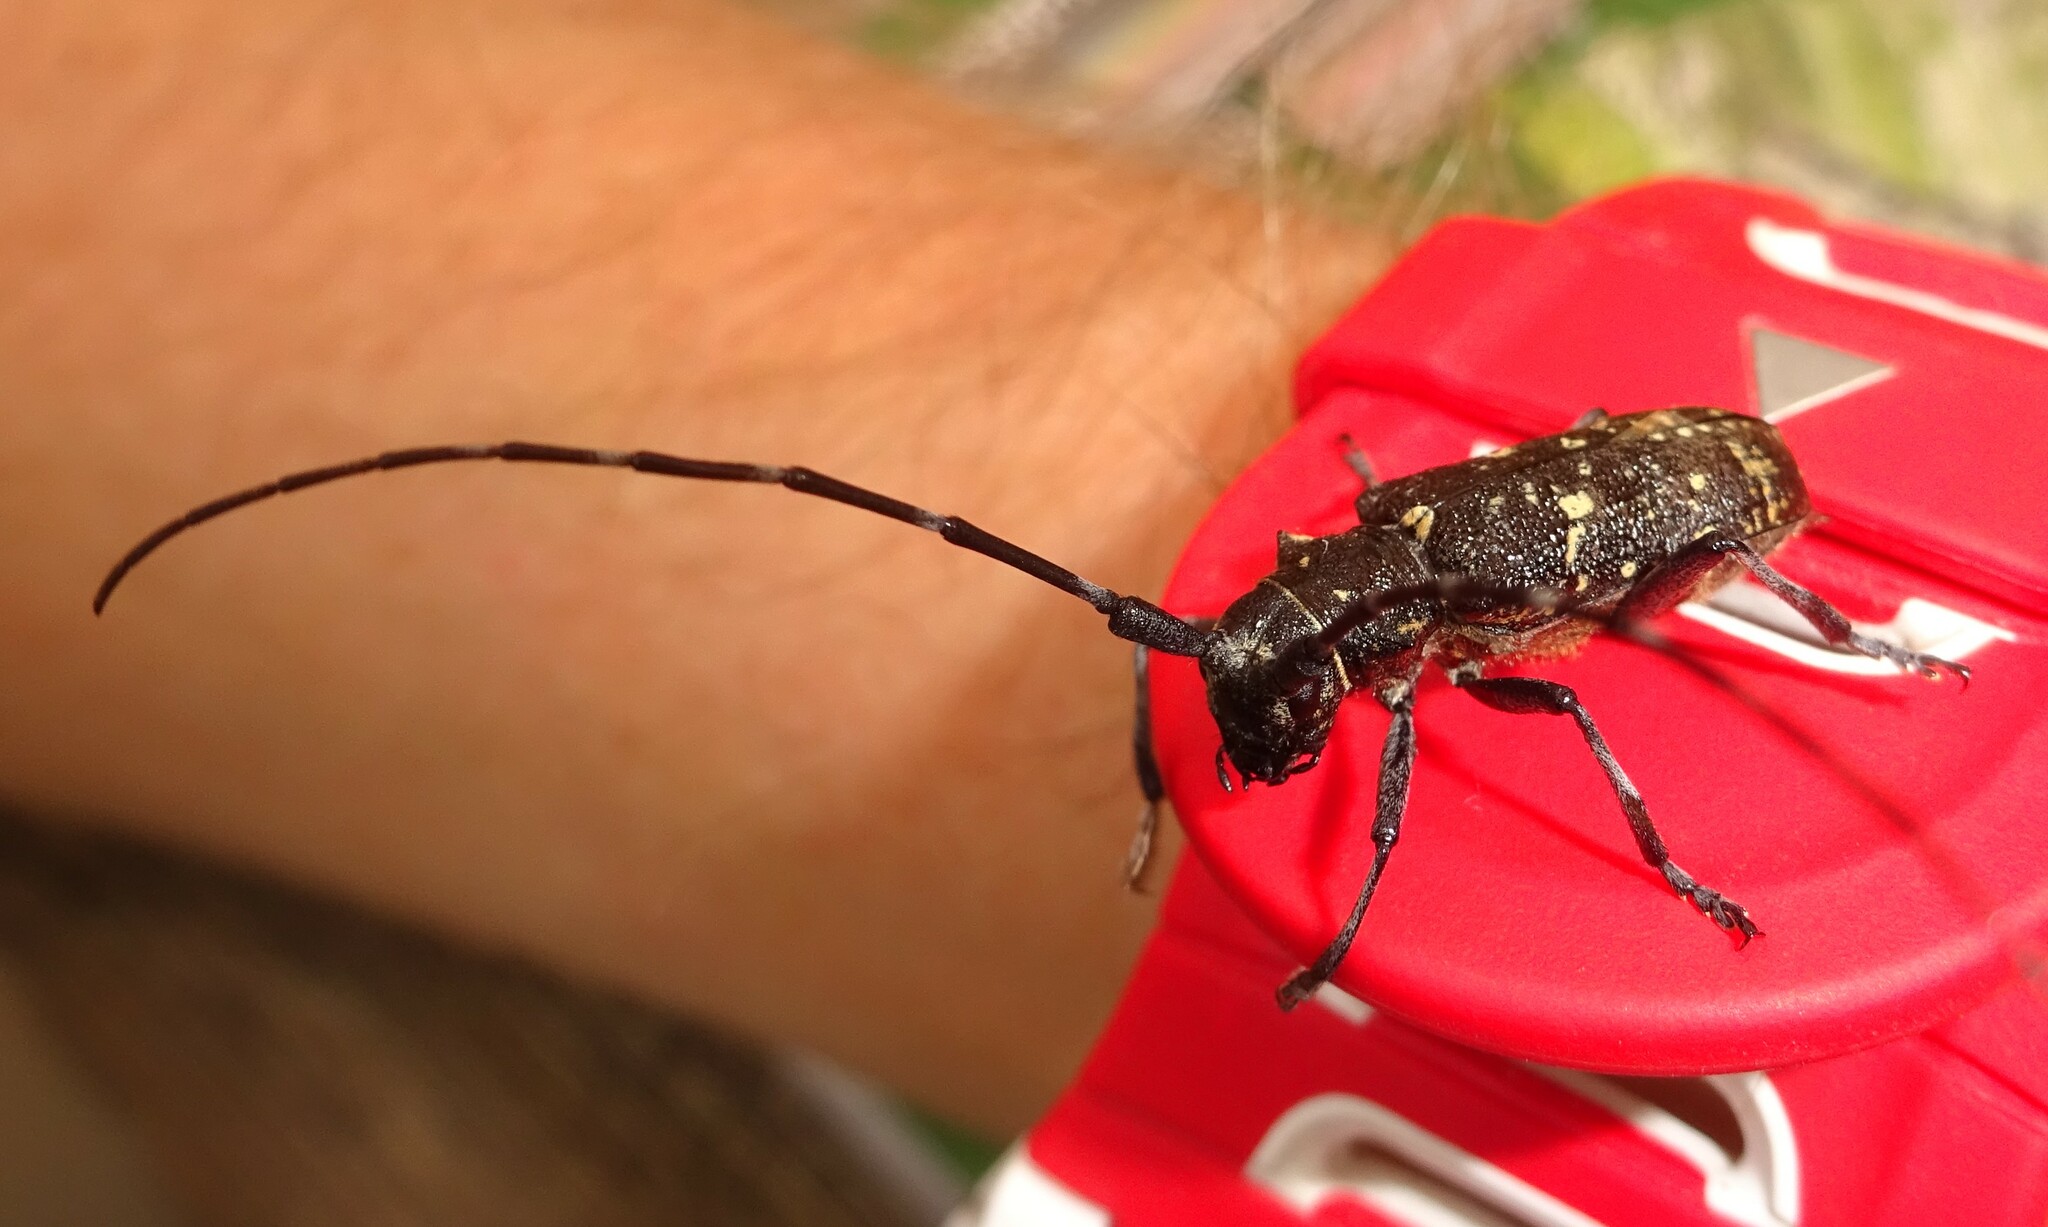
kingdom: Animalia
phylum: Arthropoda
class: Insecta
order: Coleoptera
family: Cerambycidae
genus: Monochamus
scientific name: Monochamus sutor
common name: Pine sawyer
